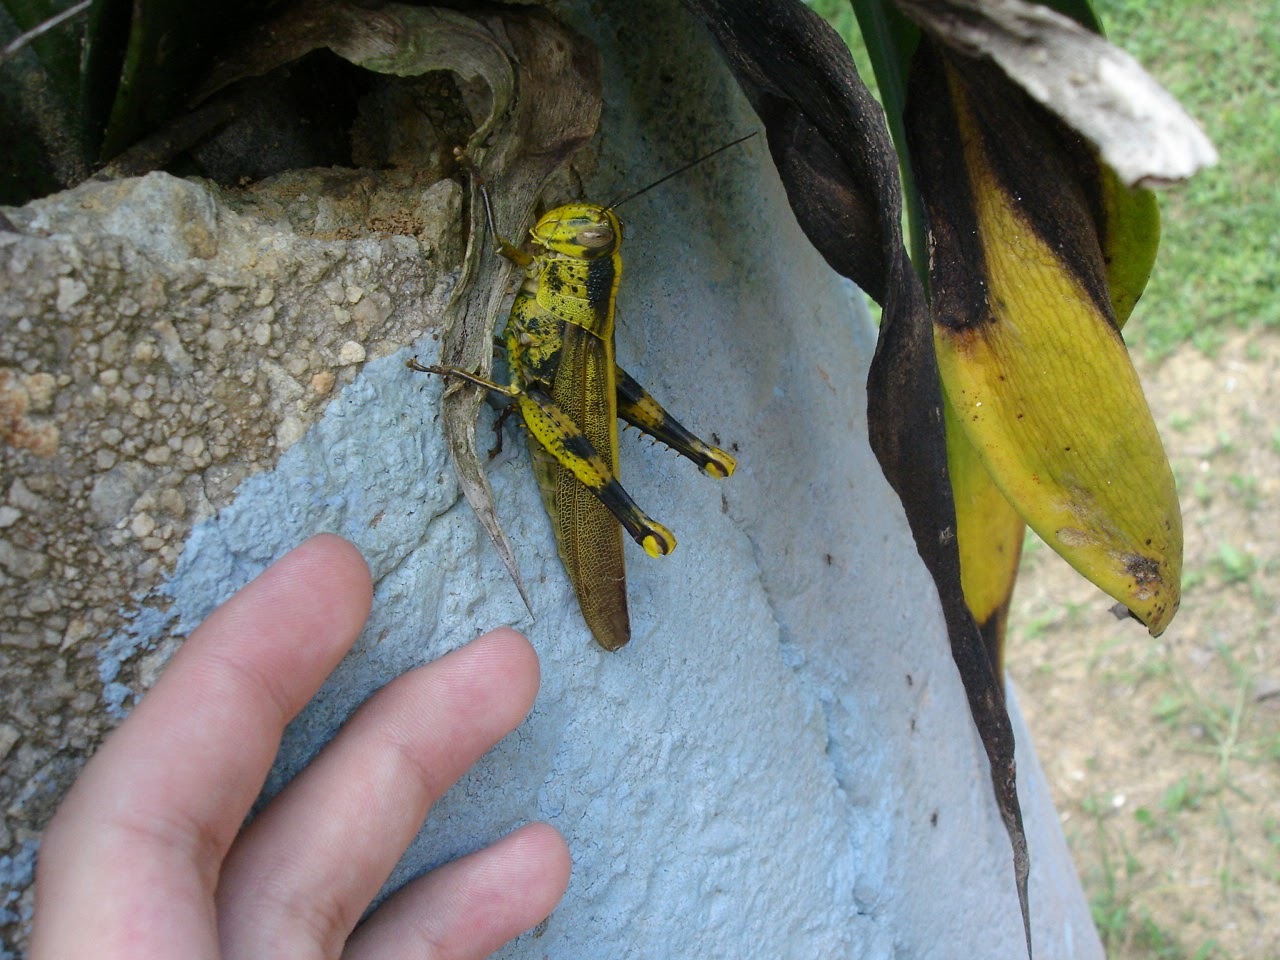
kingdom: Animalia
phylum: Arthropoda
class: Insecta
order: Orthoptera
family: Acrididae
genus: Valanga
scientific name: Valanga nigricornis
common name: Javanese bird grasshopper
